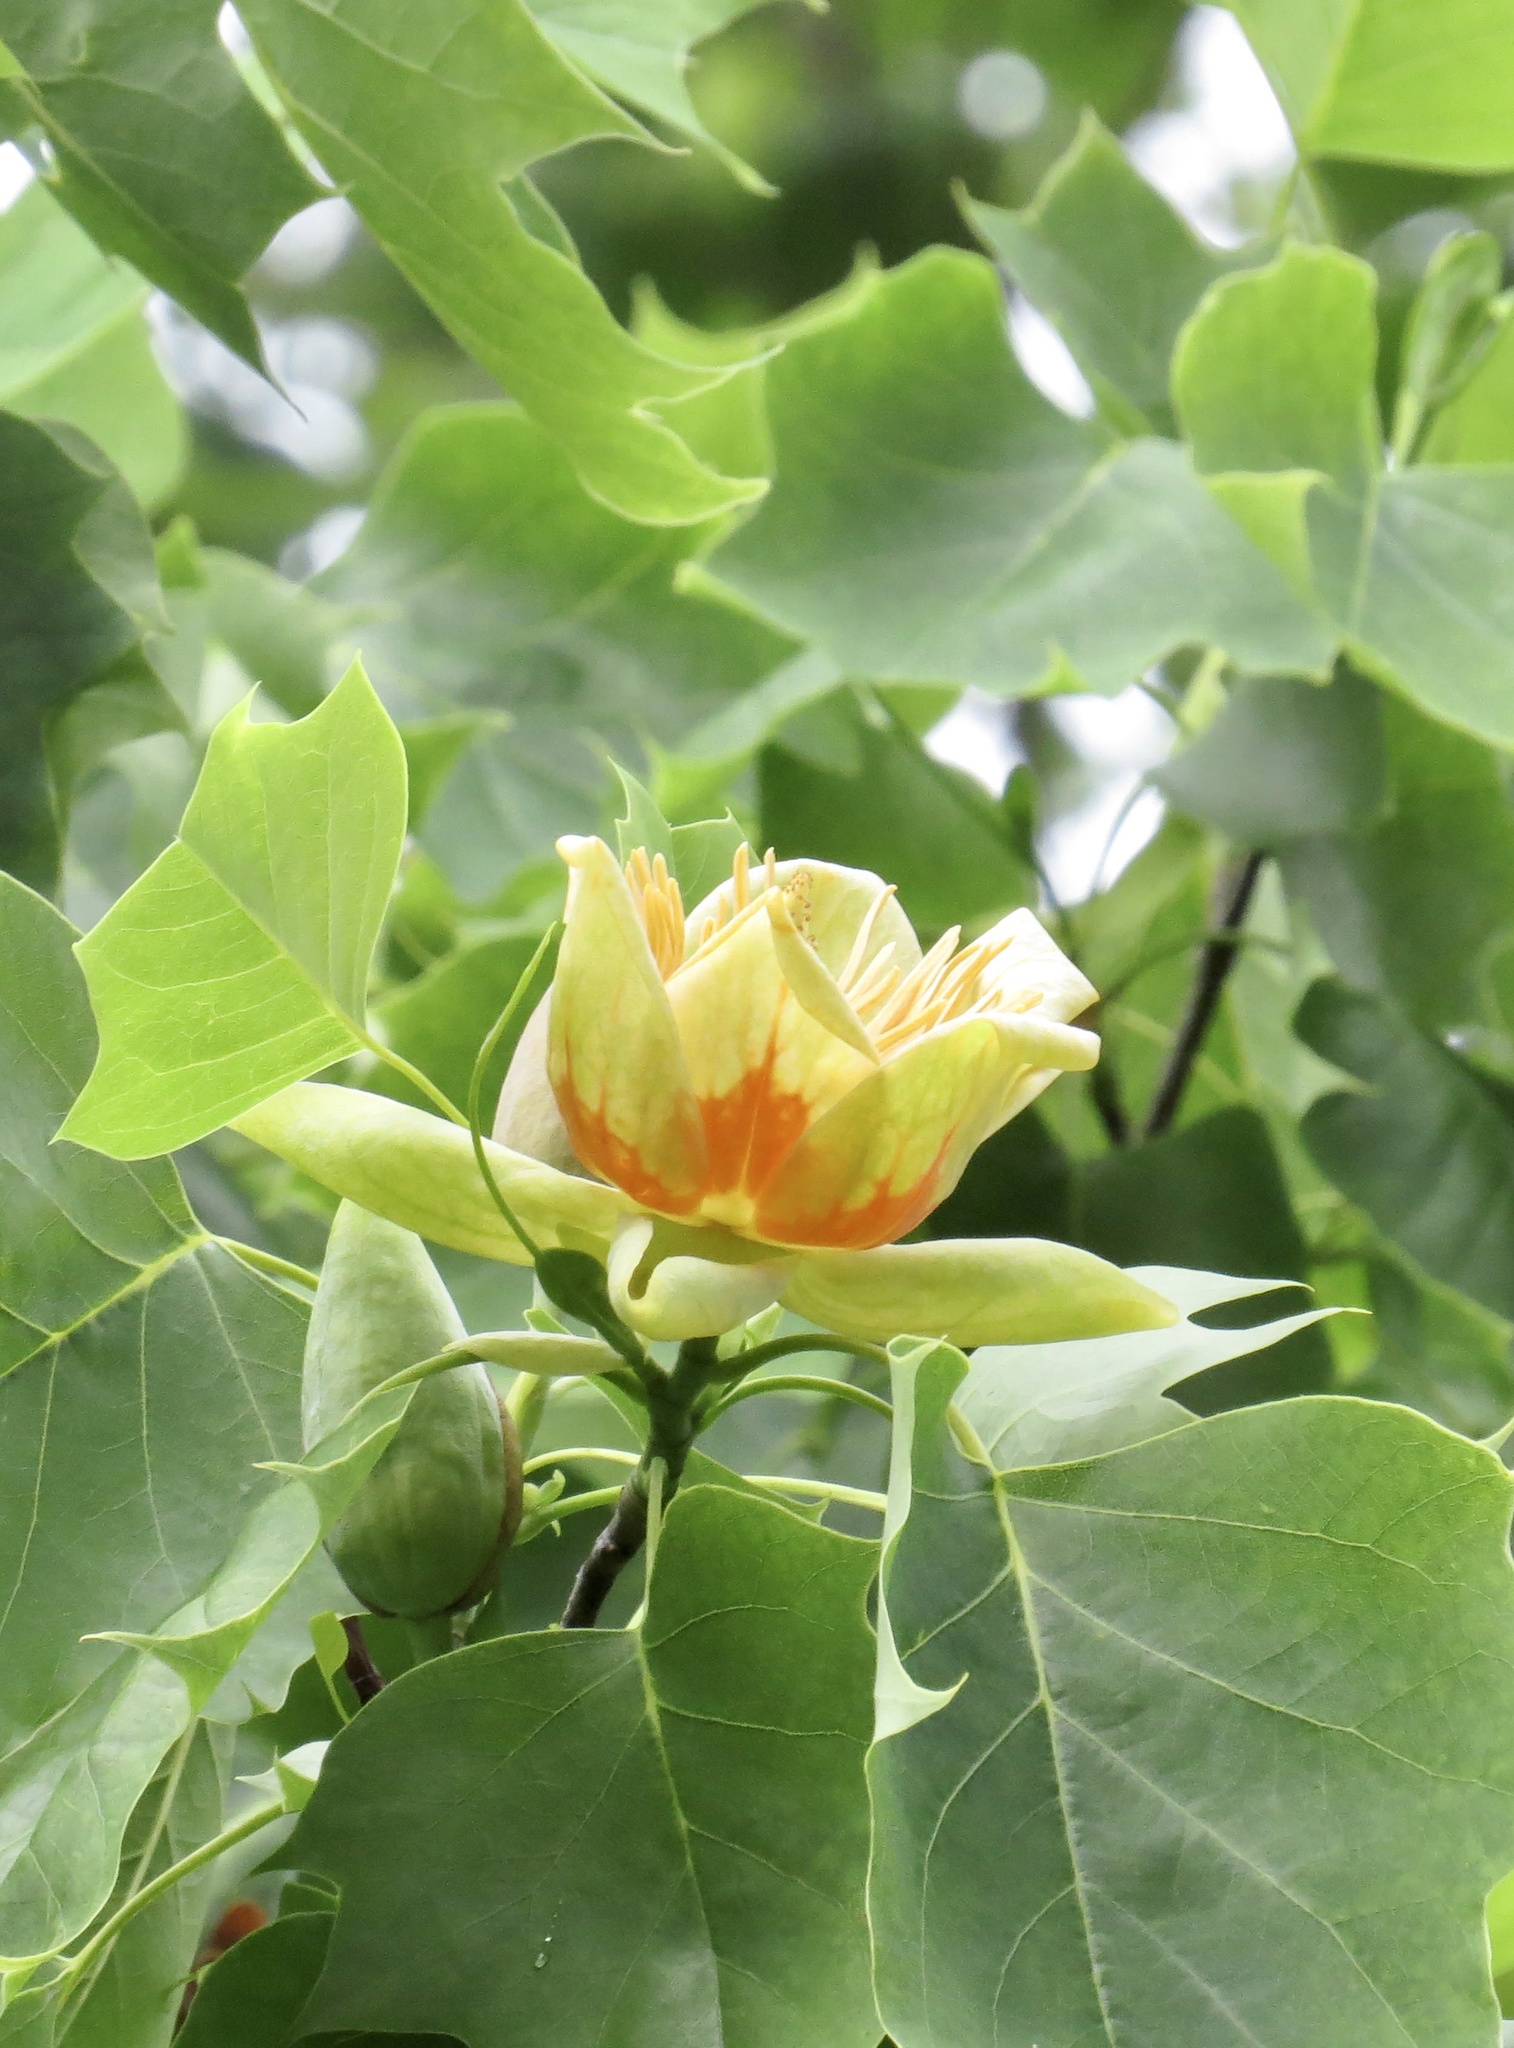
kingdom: Plantae
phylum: Tracheophyta
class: Magnoliopsida
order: Magnoliales
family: Magnoliaceae
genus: Liriodendron
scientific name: Liriodendron tulipifera
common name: Tulip tree
